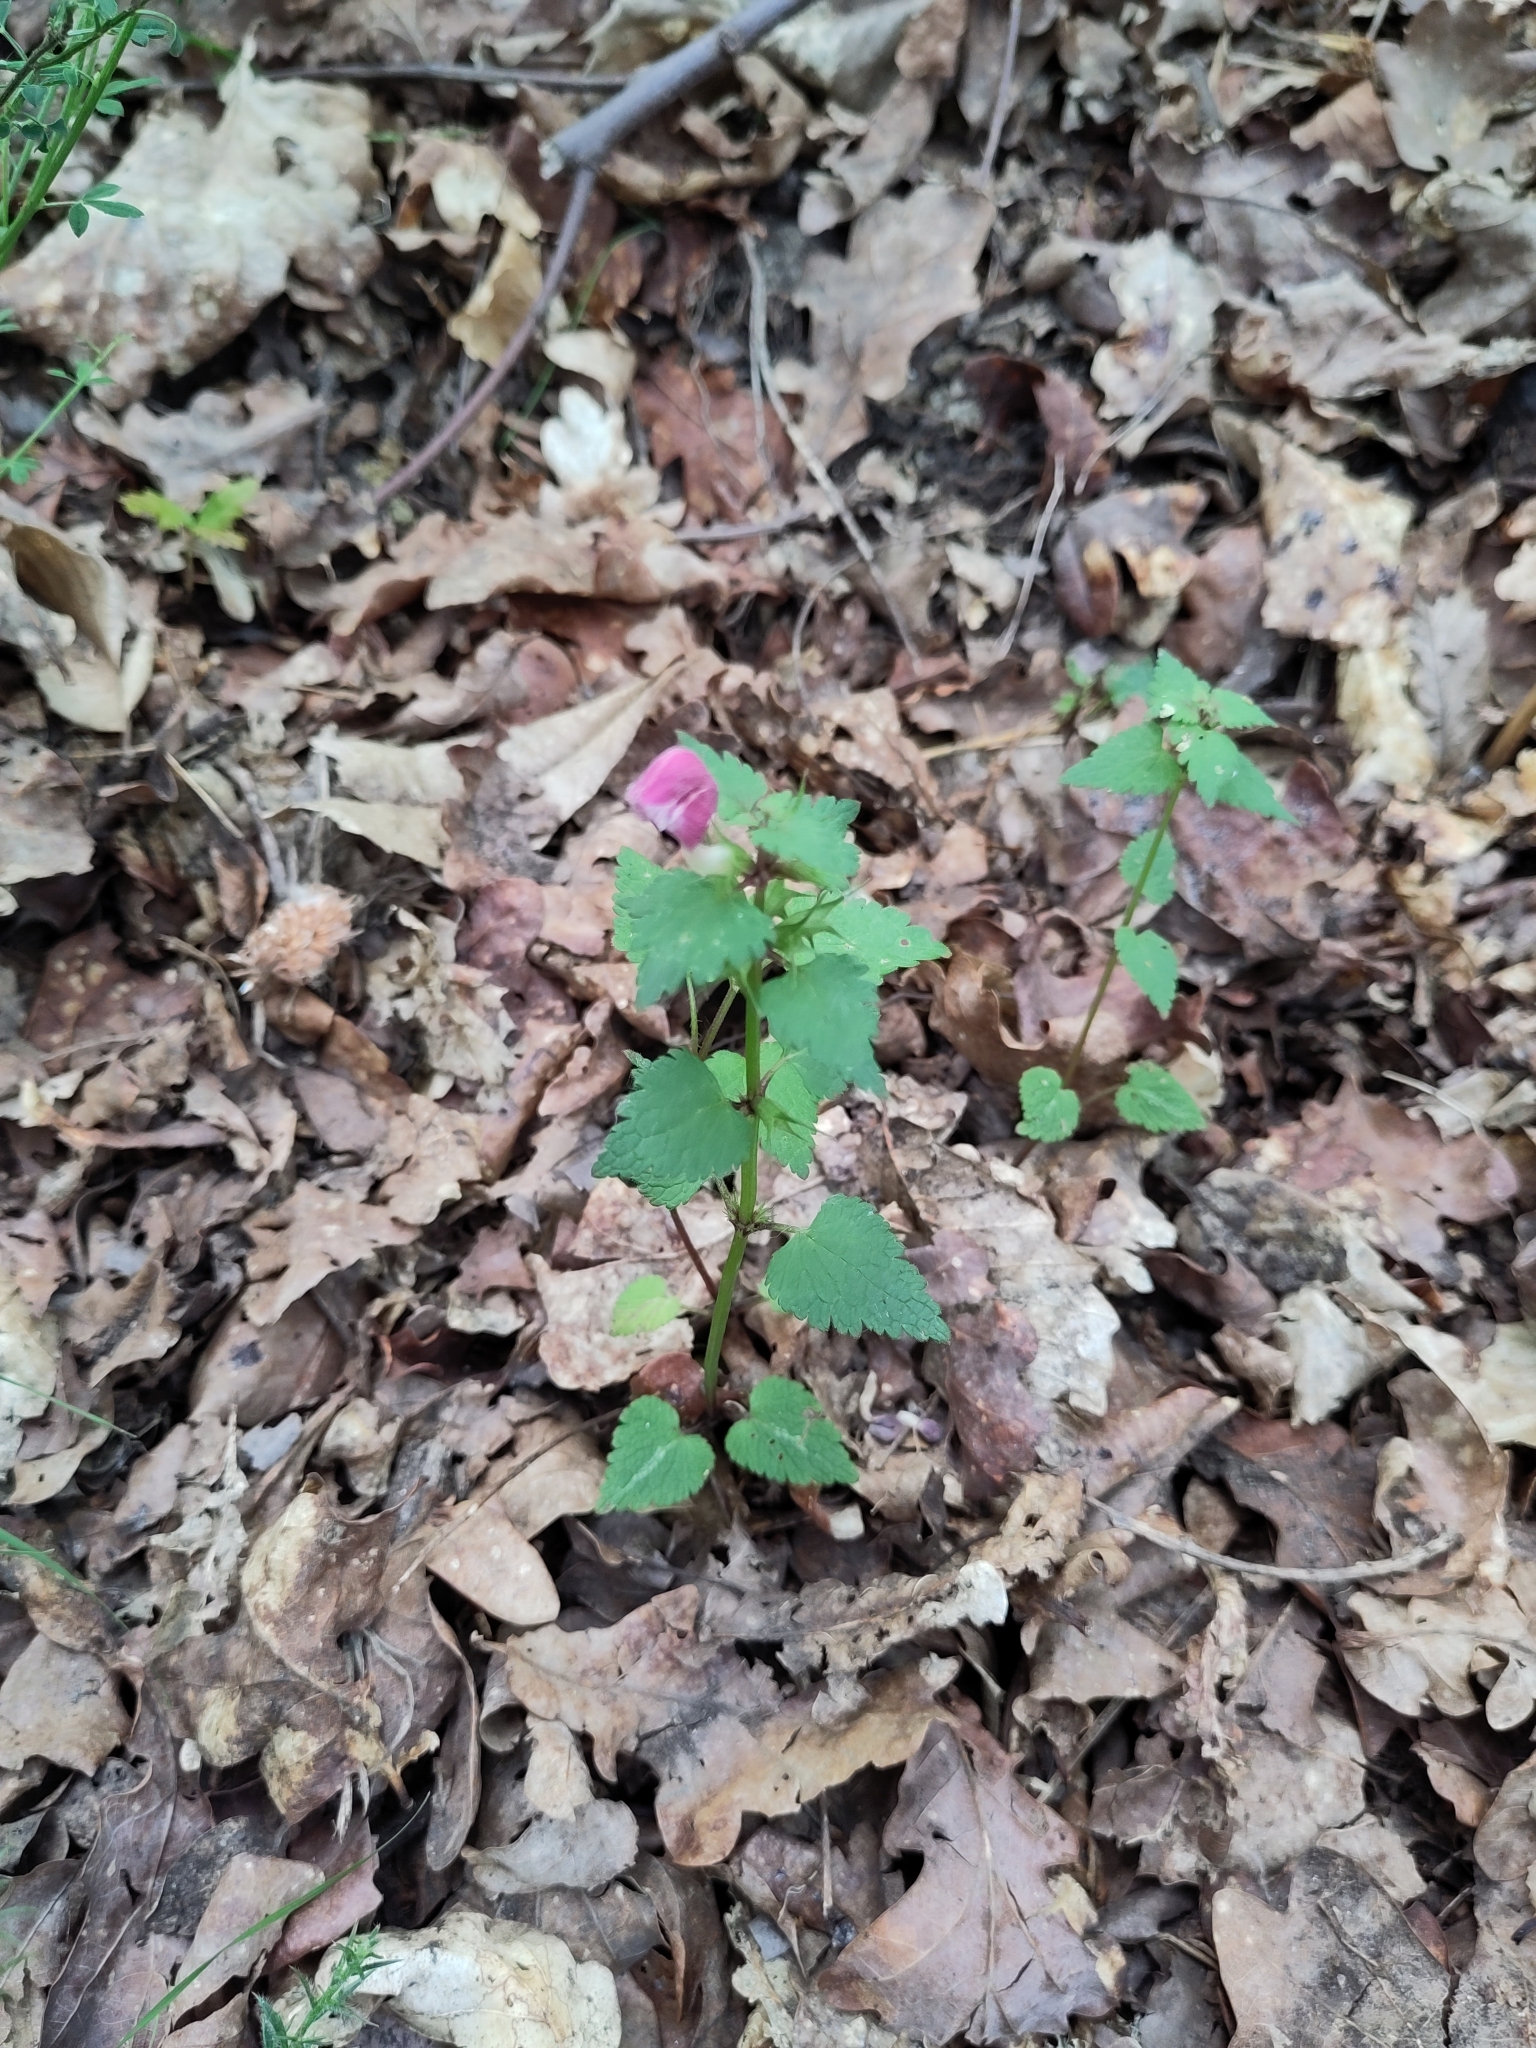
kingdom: Plantae
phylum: Tracheophyta
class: Magnoliopsida
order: Lamiales
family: Lamiaceae
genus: Lamium
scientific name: Lamium maculatum
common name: Spotted dead-nettle
